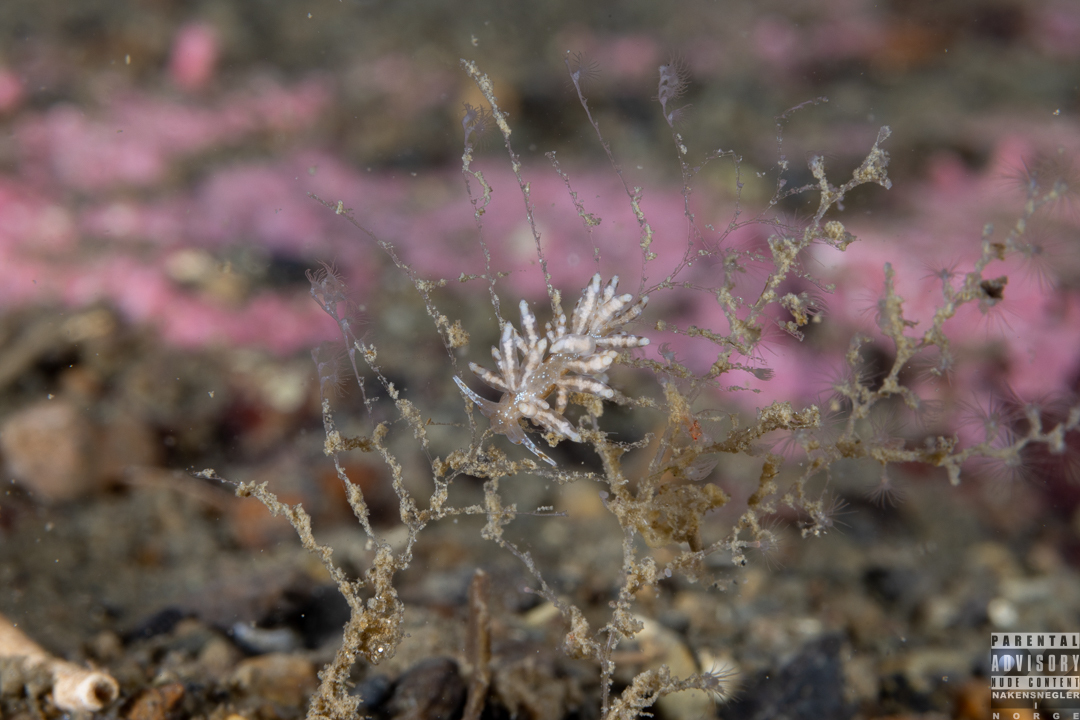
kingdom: Animalia
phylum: Mollusca
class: Gastropoda
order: Nudibranchia
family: Eubranchidae
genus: Eubranchus
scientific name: Eubranchus vittatus
